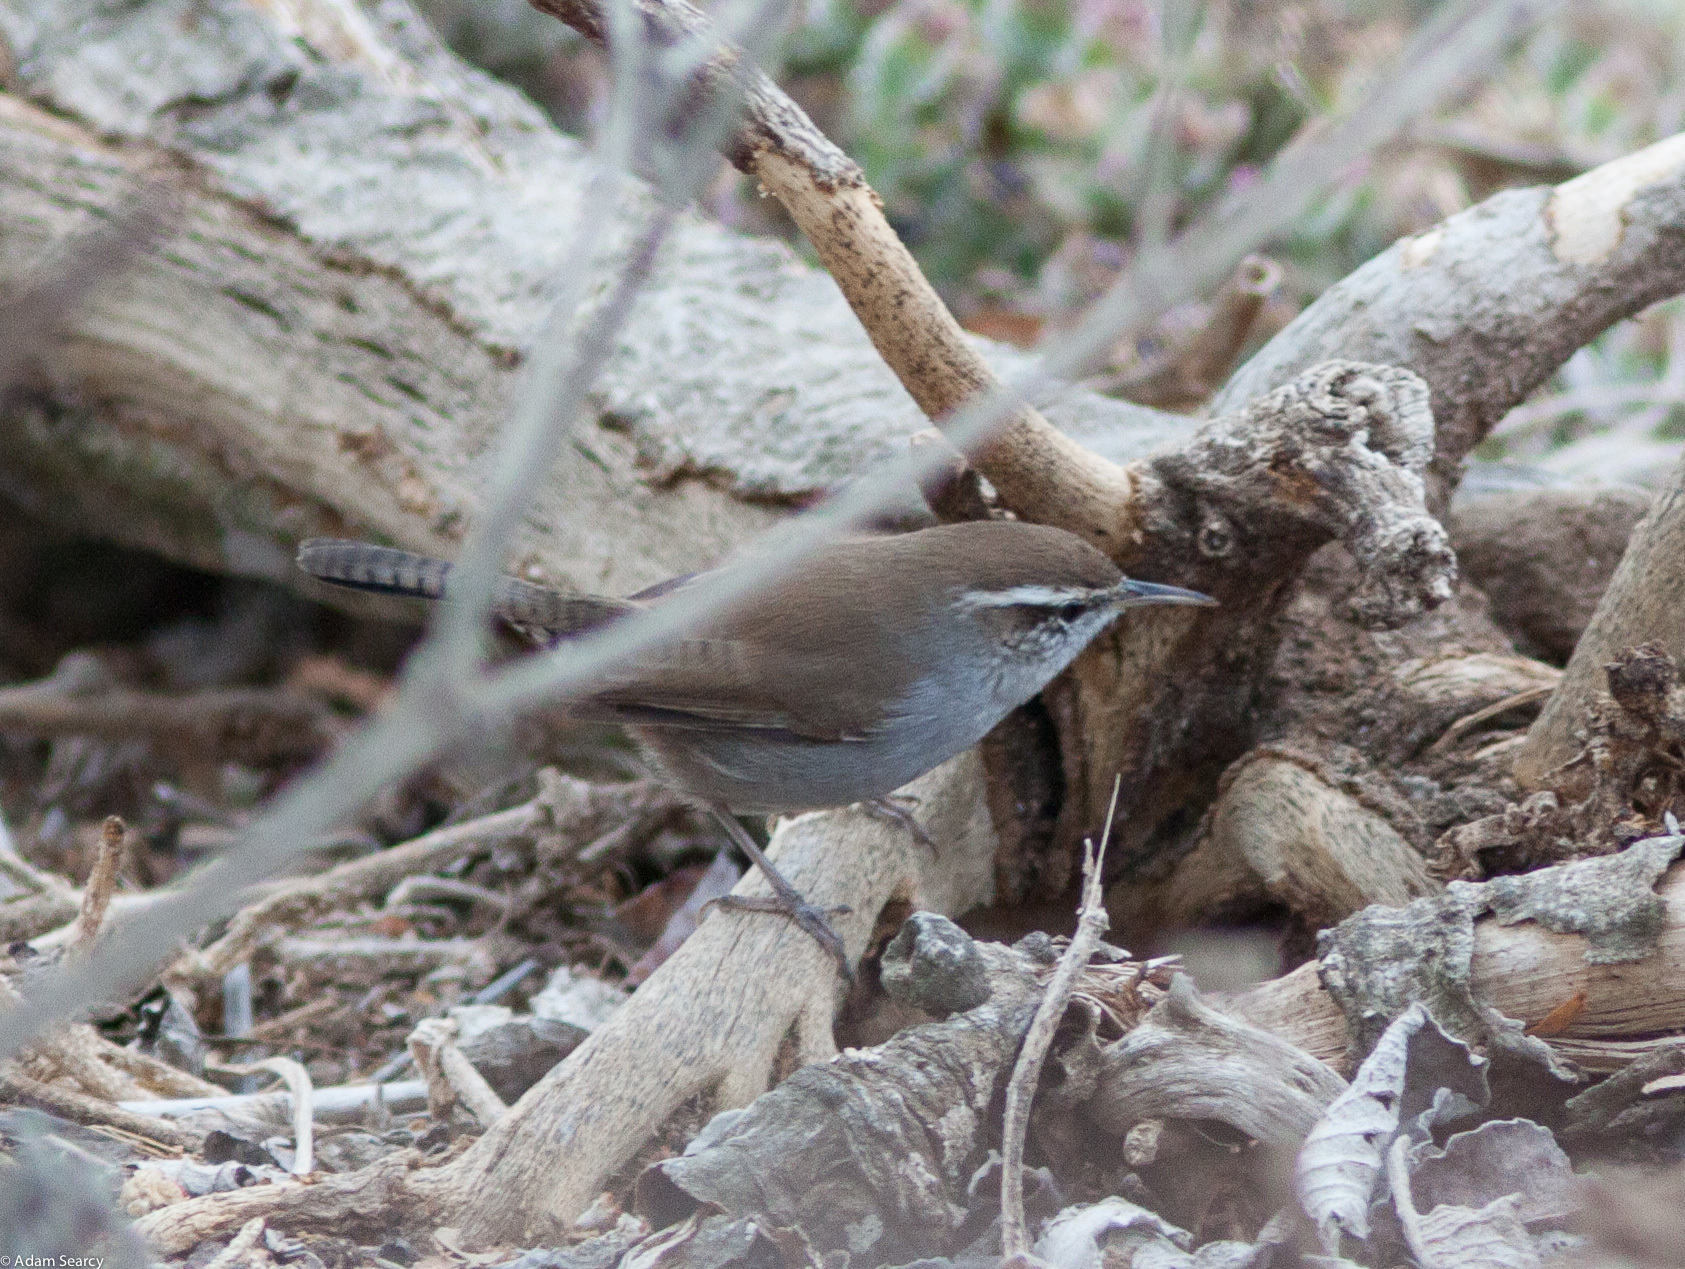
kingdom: Animalia
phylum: Chordata
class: Aves
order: Passeriformes
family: Troglodytidae
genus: Thryomanes
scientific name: Thryomanes bewickii
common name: Bewick's wren
